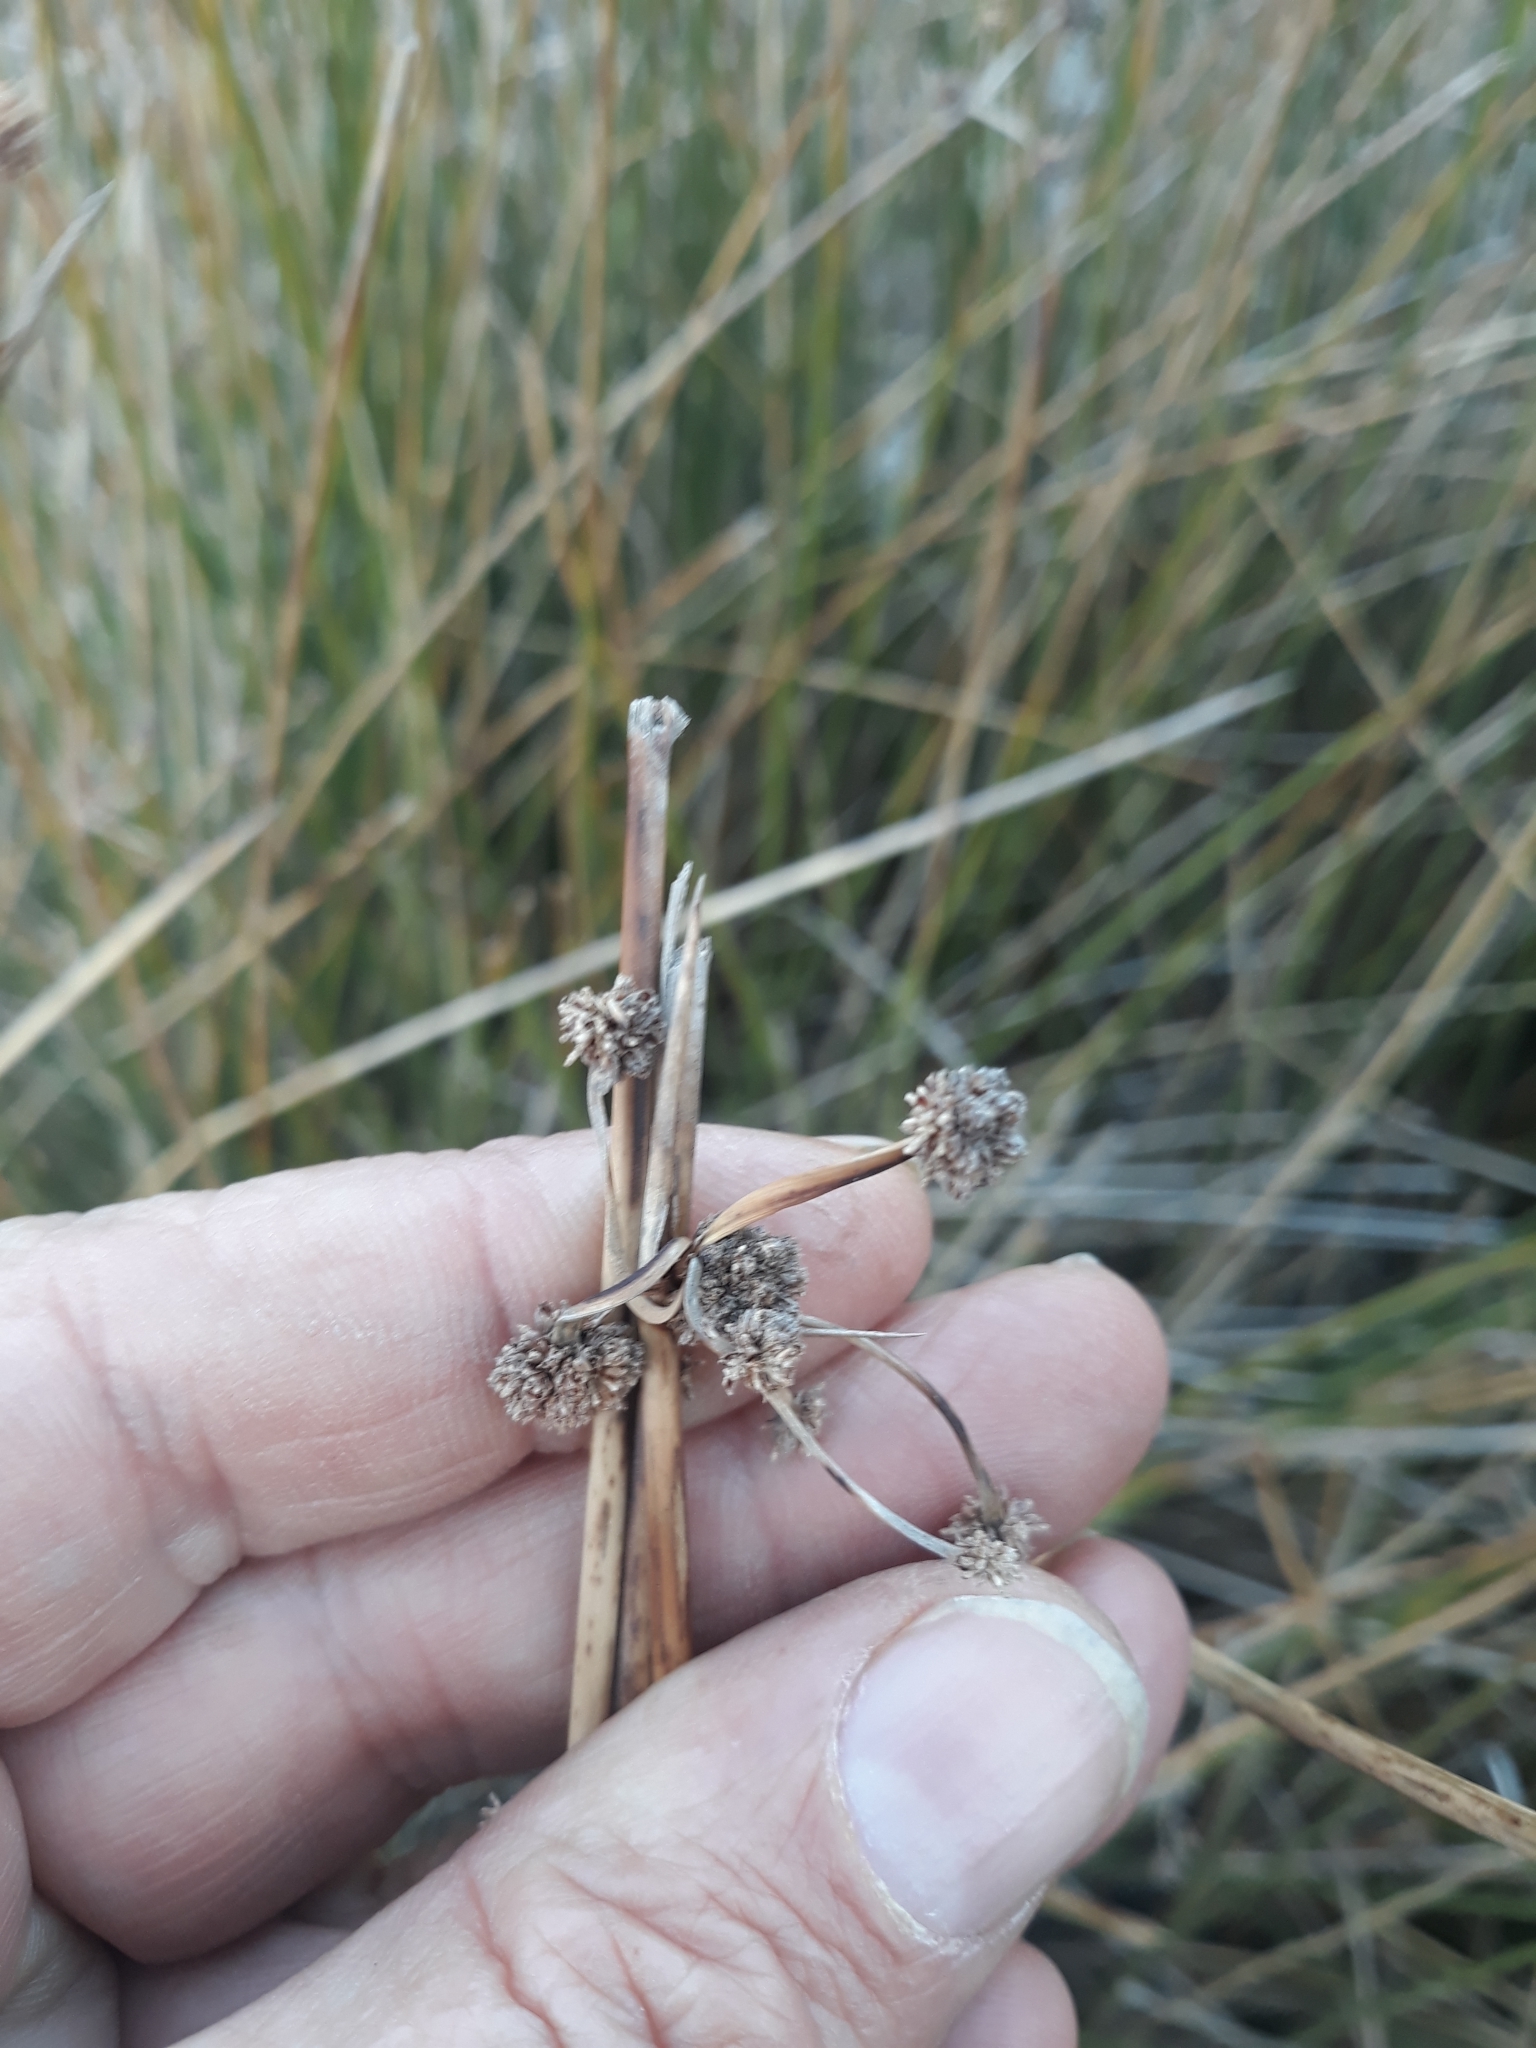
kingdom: Plantae
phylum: Tracheophyta
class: Liliopsida
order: Poales
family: Cyperaceae
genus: Scirpoides
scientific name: Scirpoides holoschoenus
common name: Round-headed club-rush
